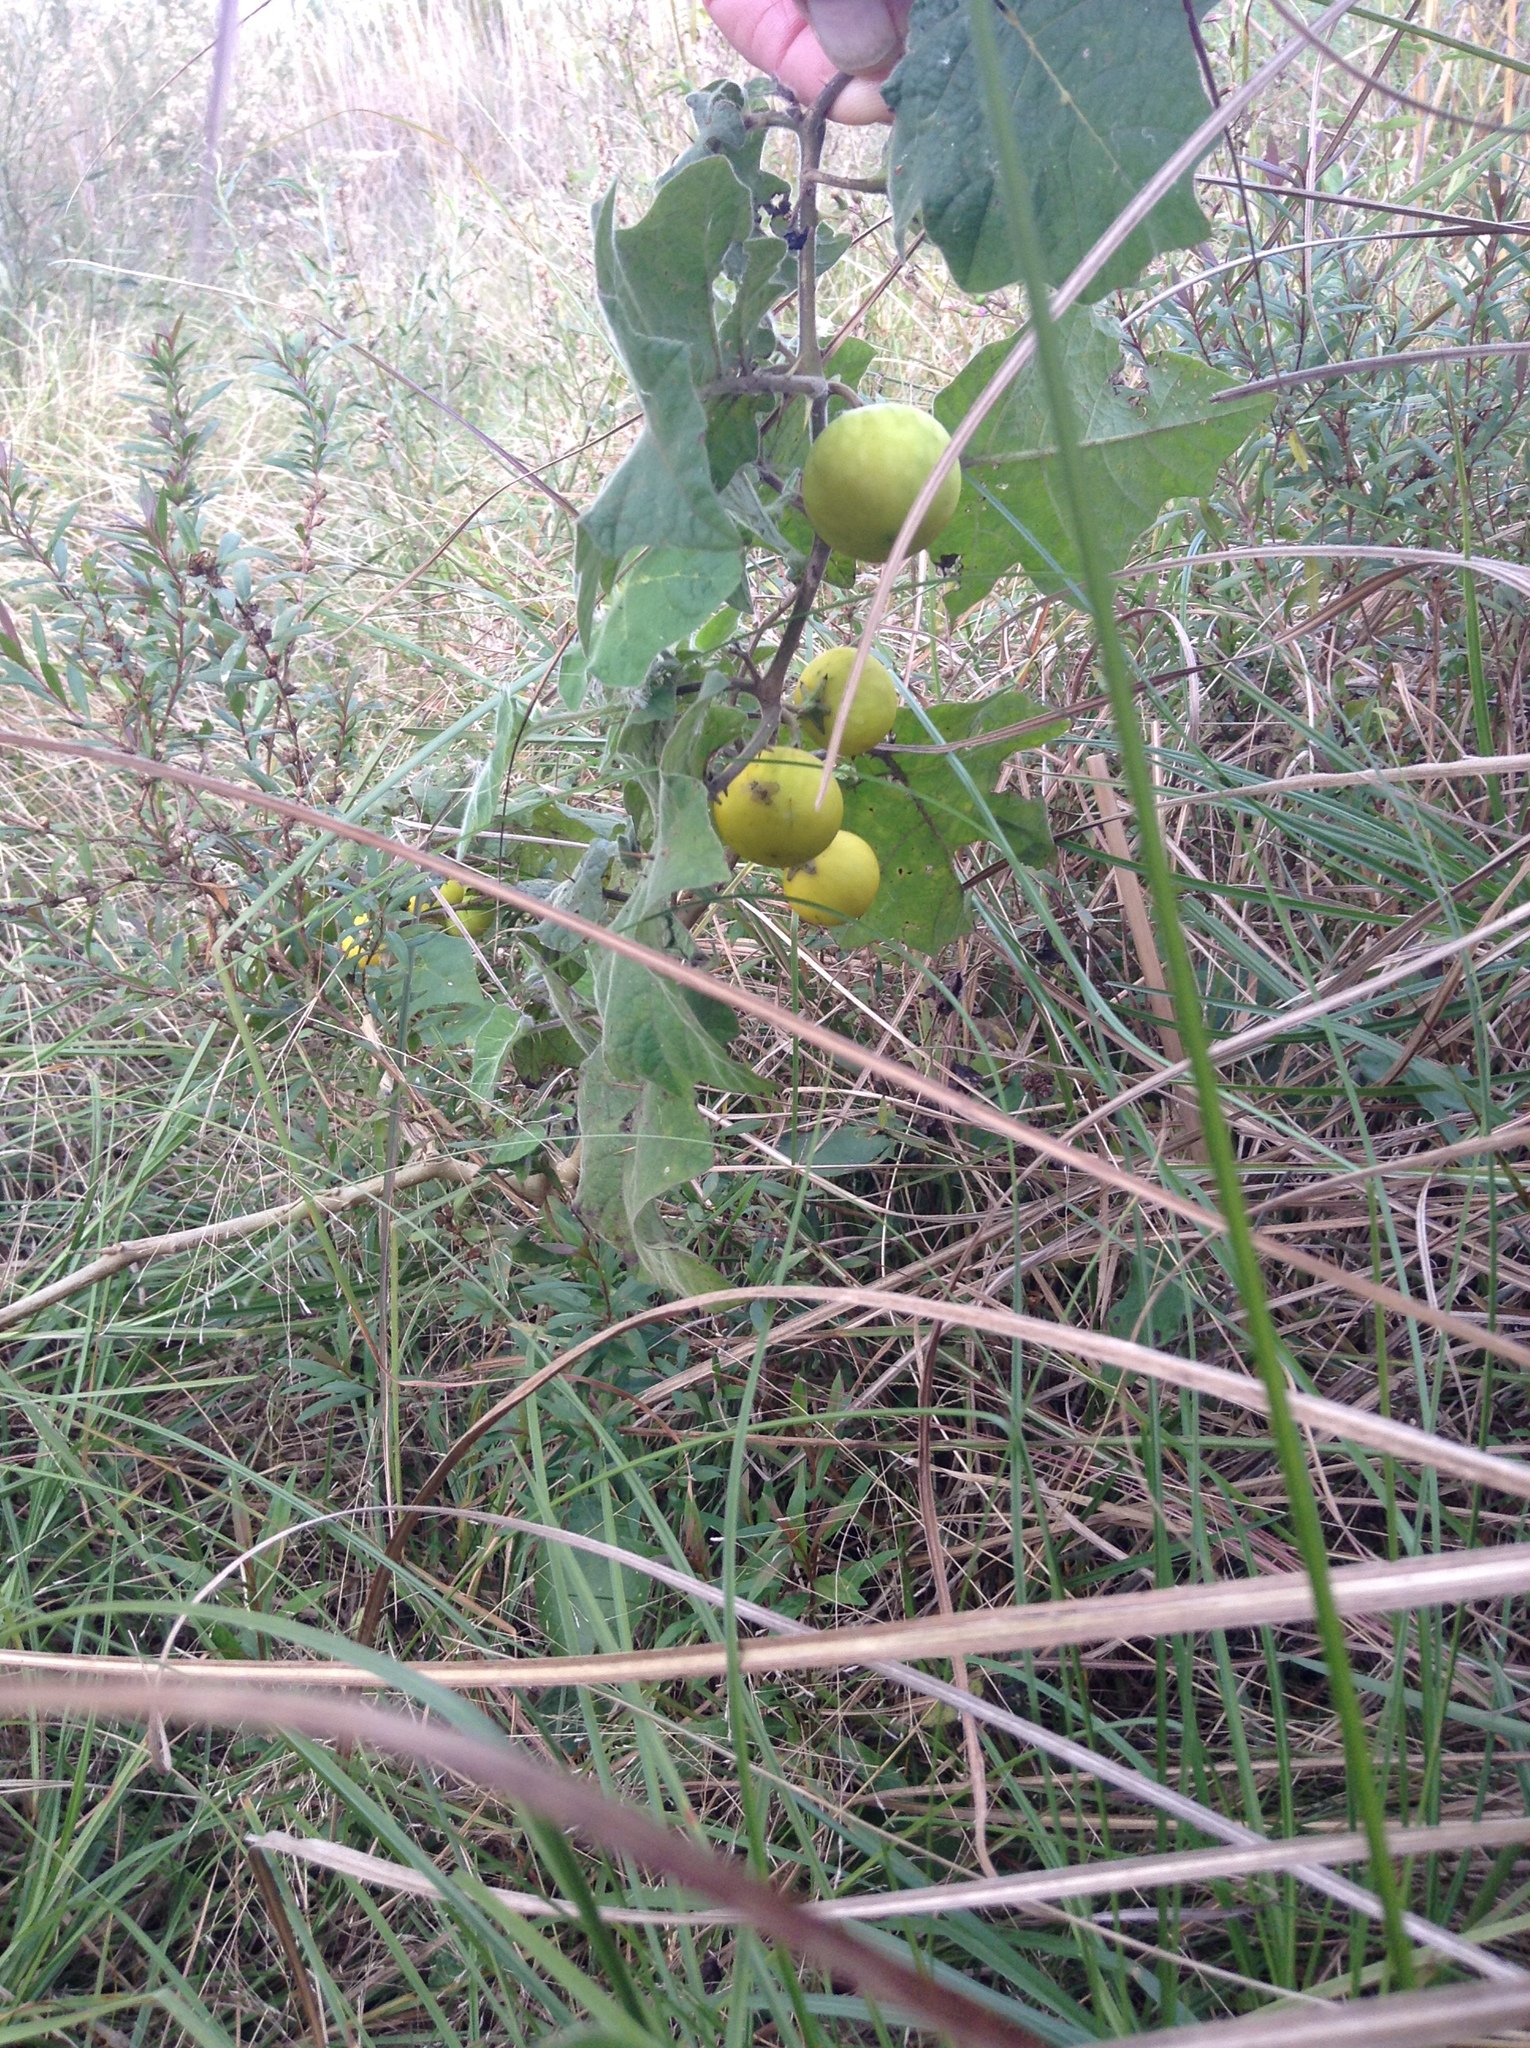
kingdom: Plantae
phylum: Tracheophyta
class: Magnoliopsida
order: Solanales
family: Solanaceae
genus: Solanum
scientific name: Solanum viarum
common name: Tropical soda apple
